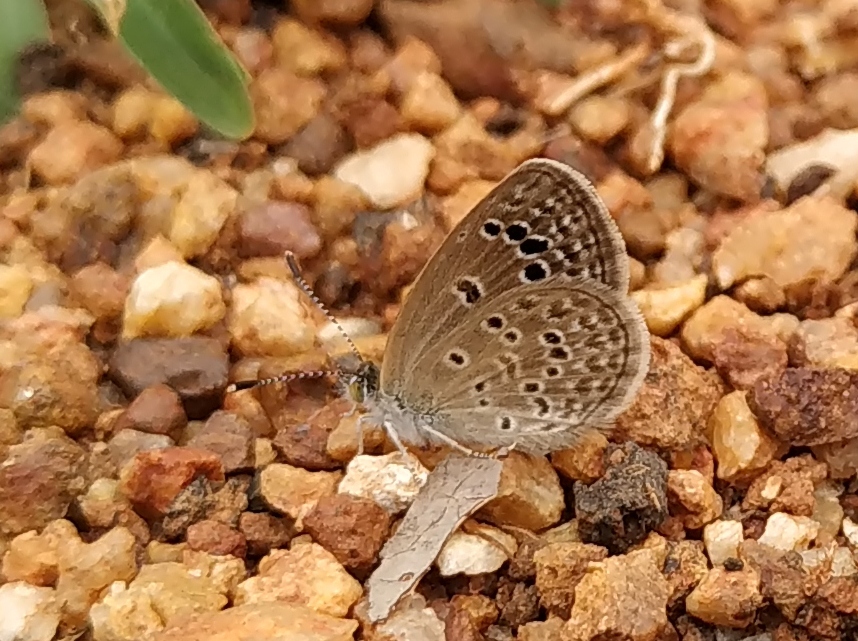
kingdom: Animalia
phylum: Arthropoda
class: Insecta
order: Lepidoptera
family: Lycaenidae
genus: Zizeeria
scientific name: Zizeeria karsandra
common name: Dark grass blue
